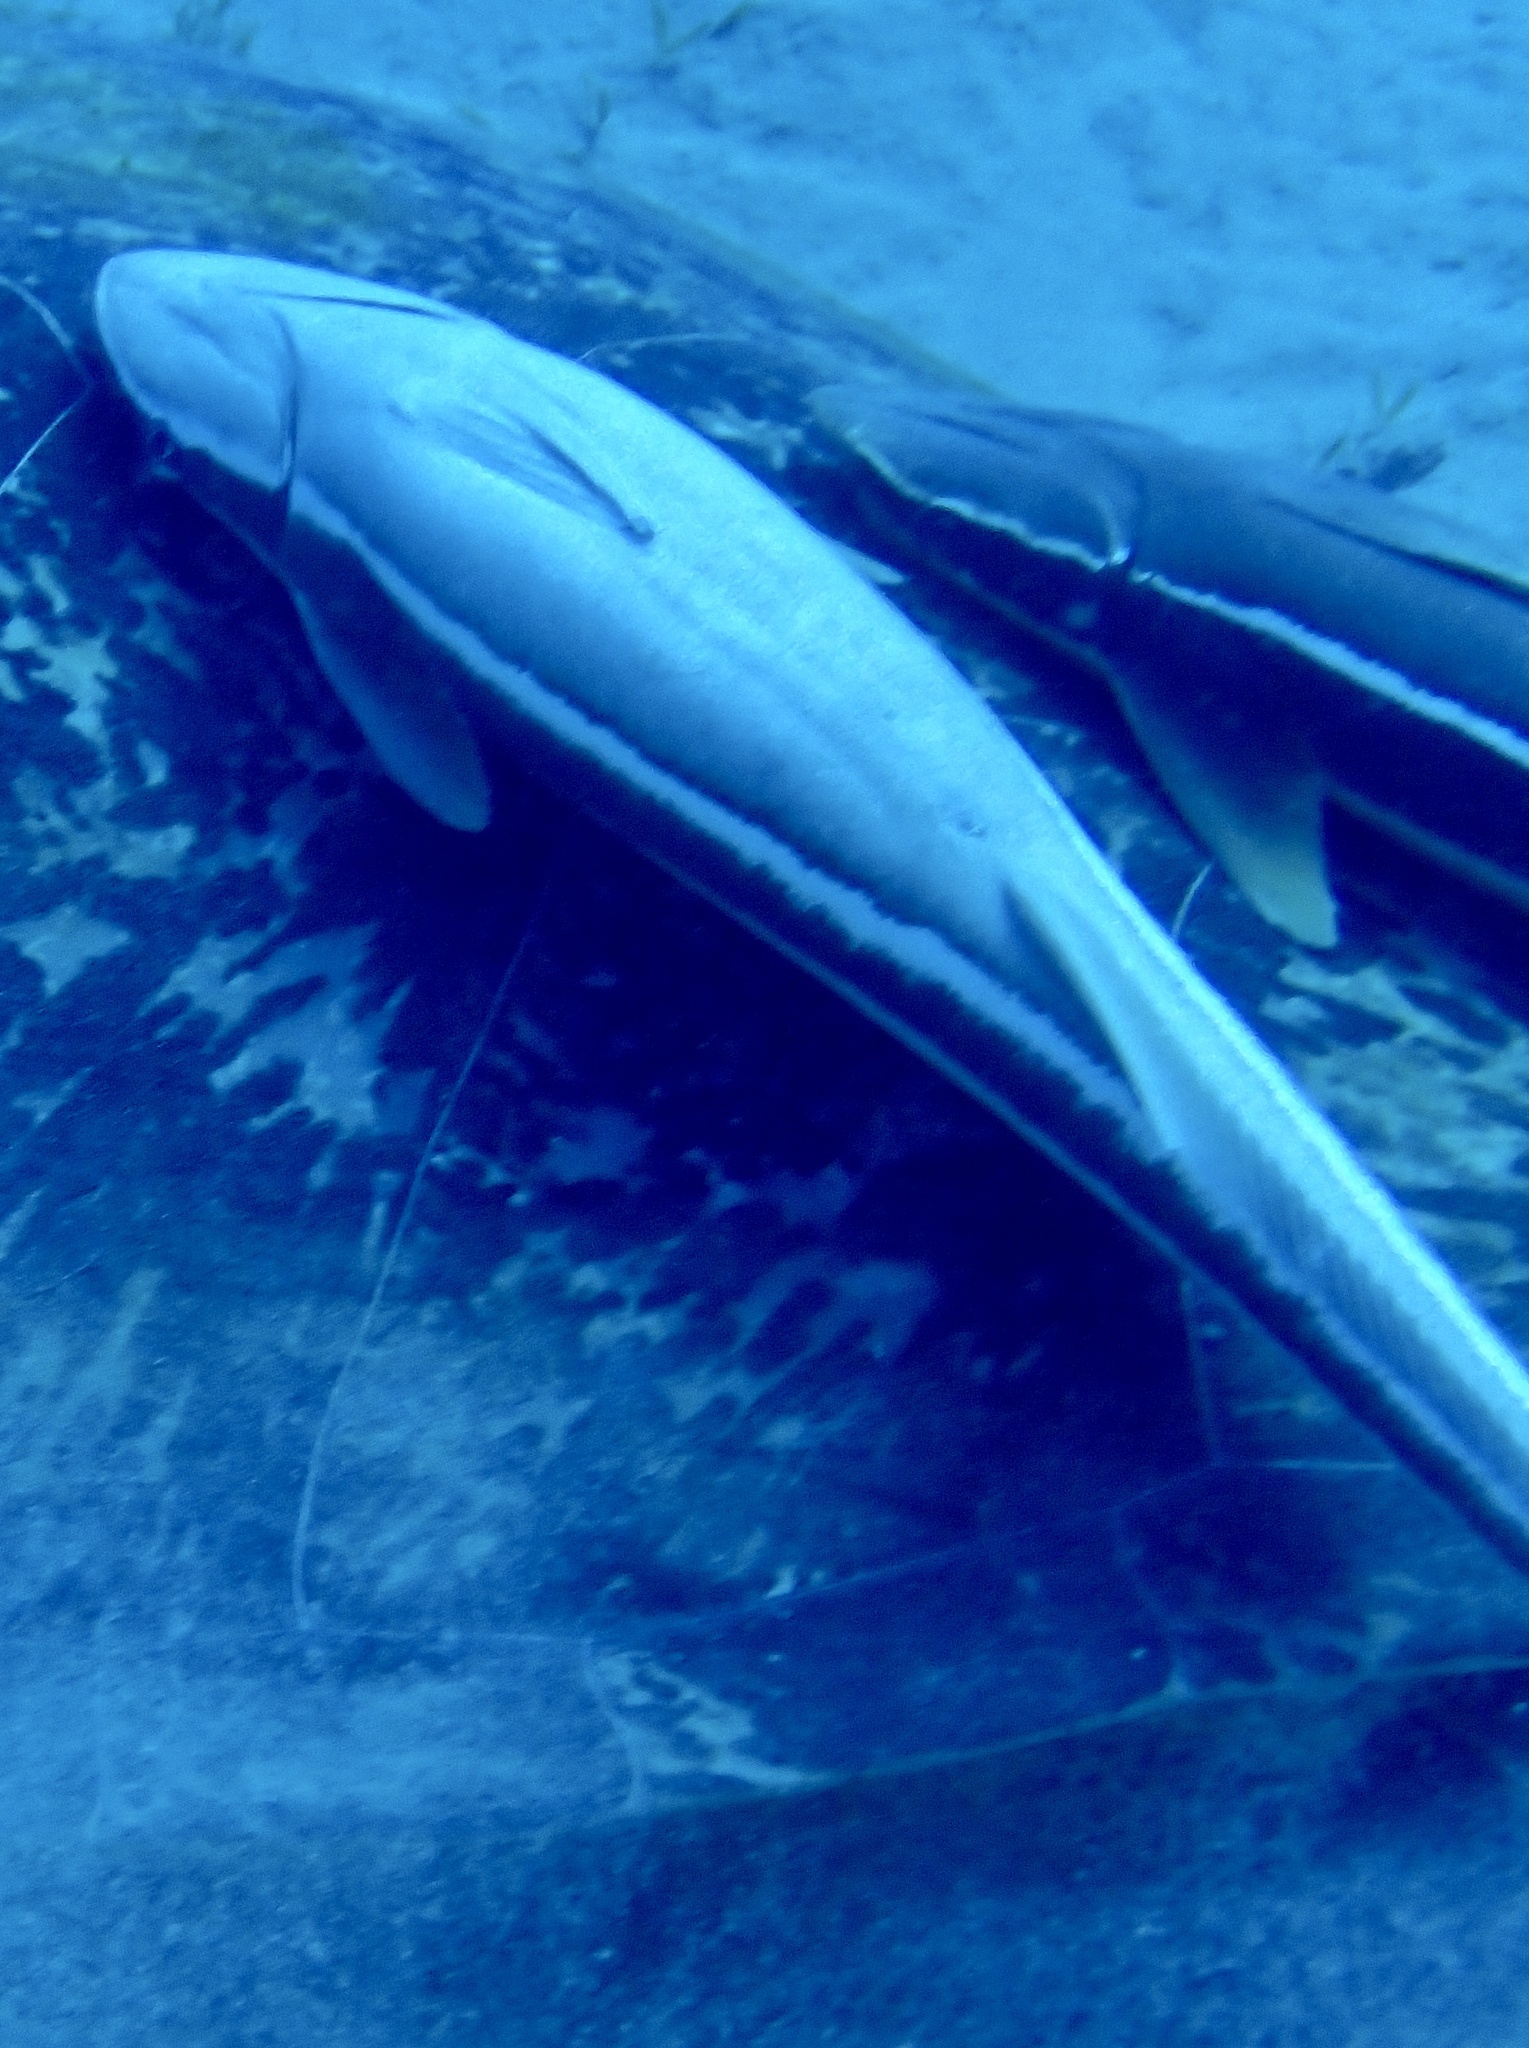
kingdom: Animalia
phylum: Chordata
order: Perciformes
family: Echeneidae
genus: Echeneis
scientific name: Echeneis naucrates
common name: Sharksucker
